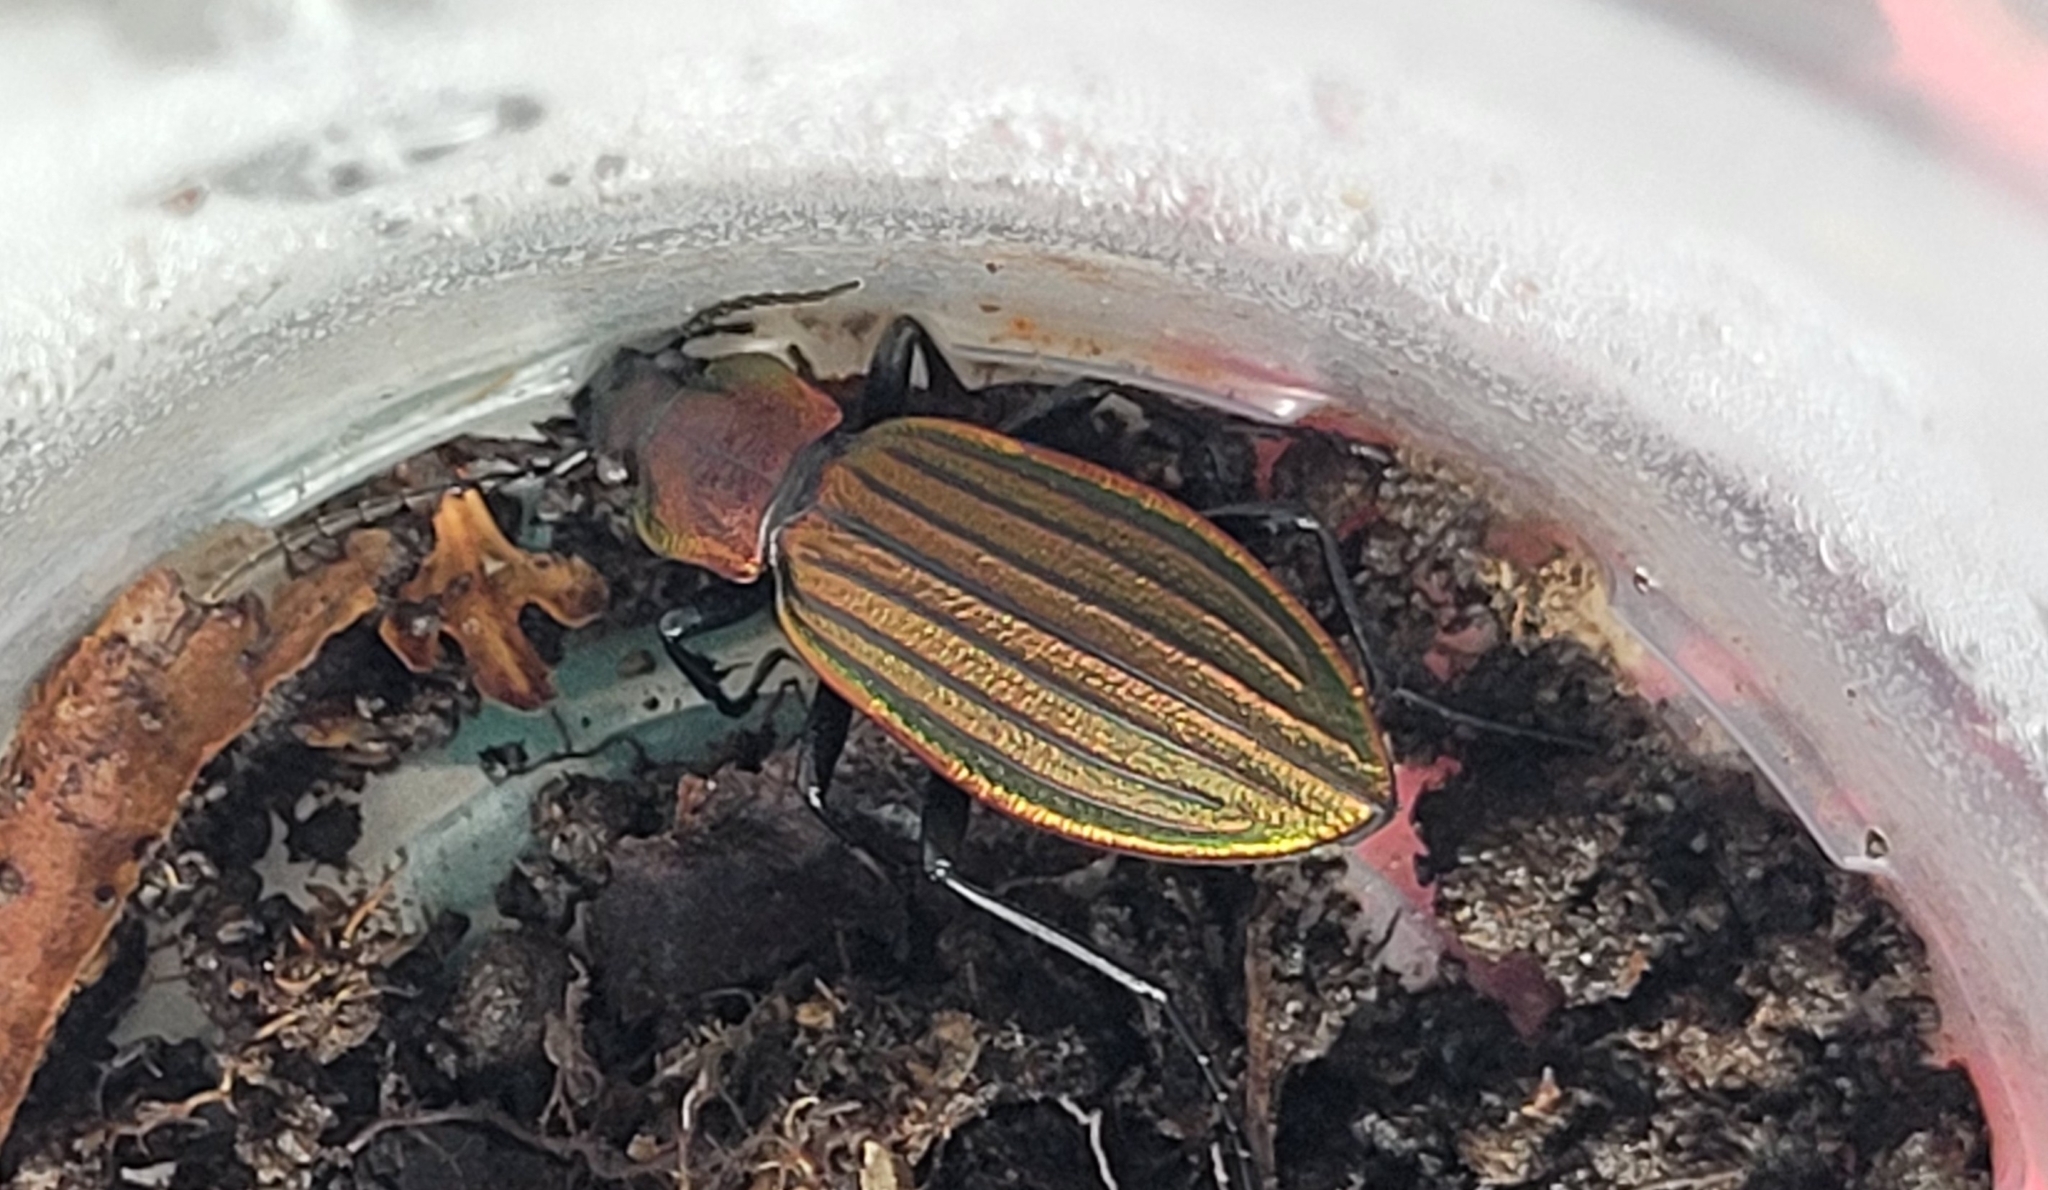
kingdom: Animalia
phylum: Arthropoda
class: Insecta
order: Coleoptera
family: Carabidae
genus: Carabus
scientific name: Carabus kolbei
